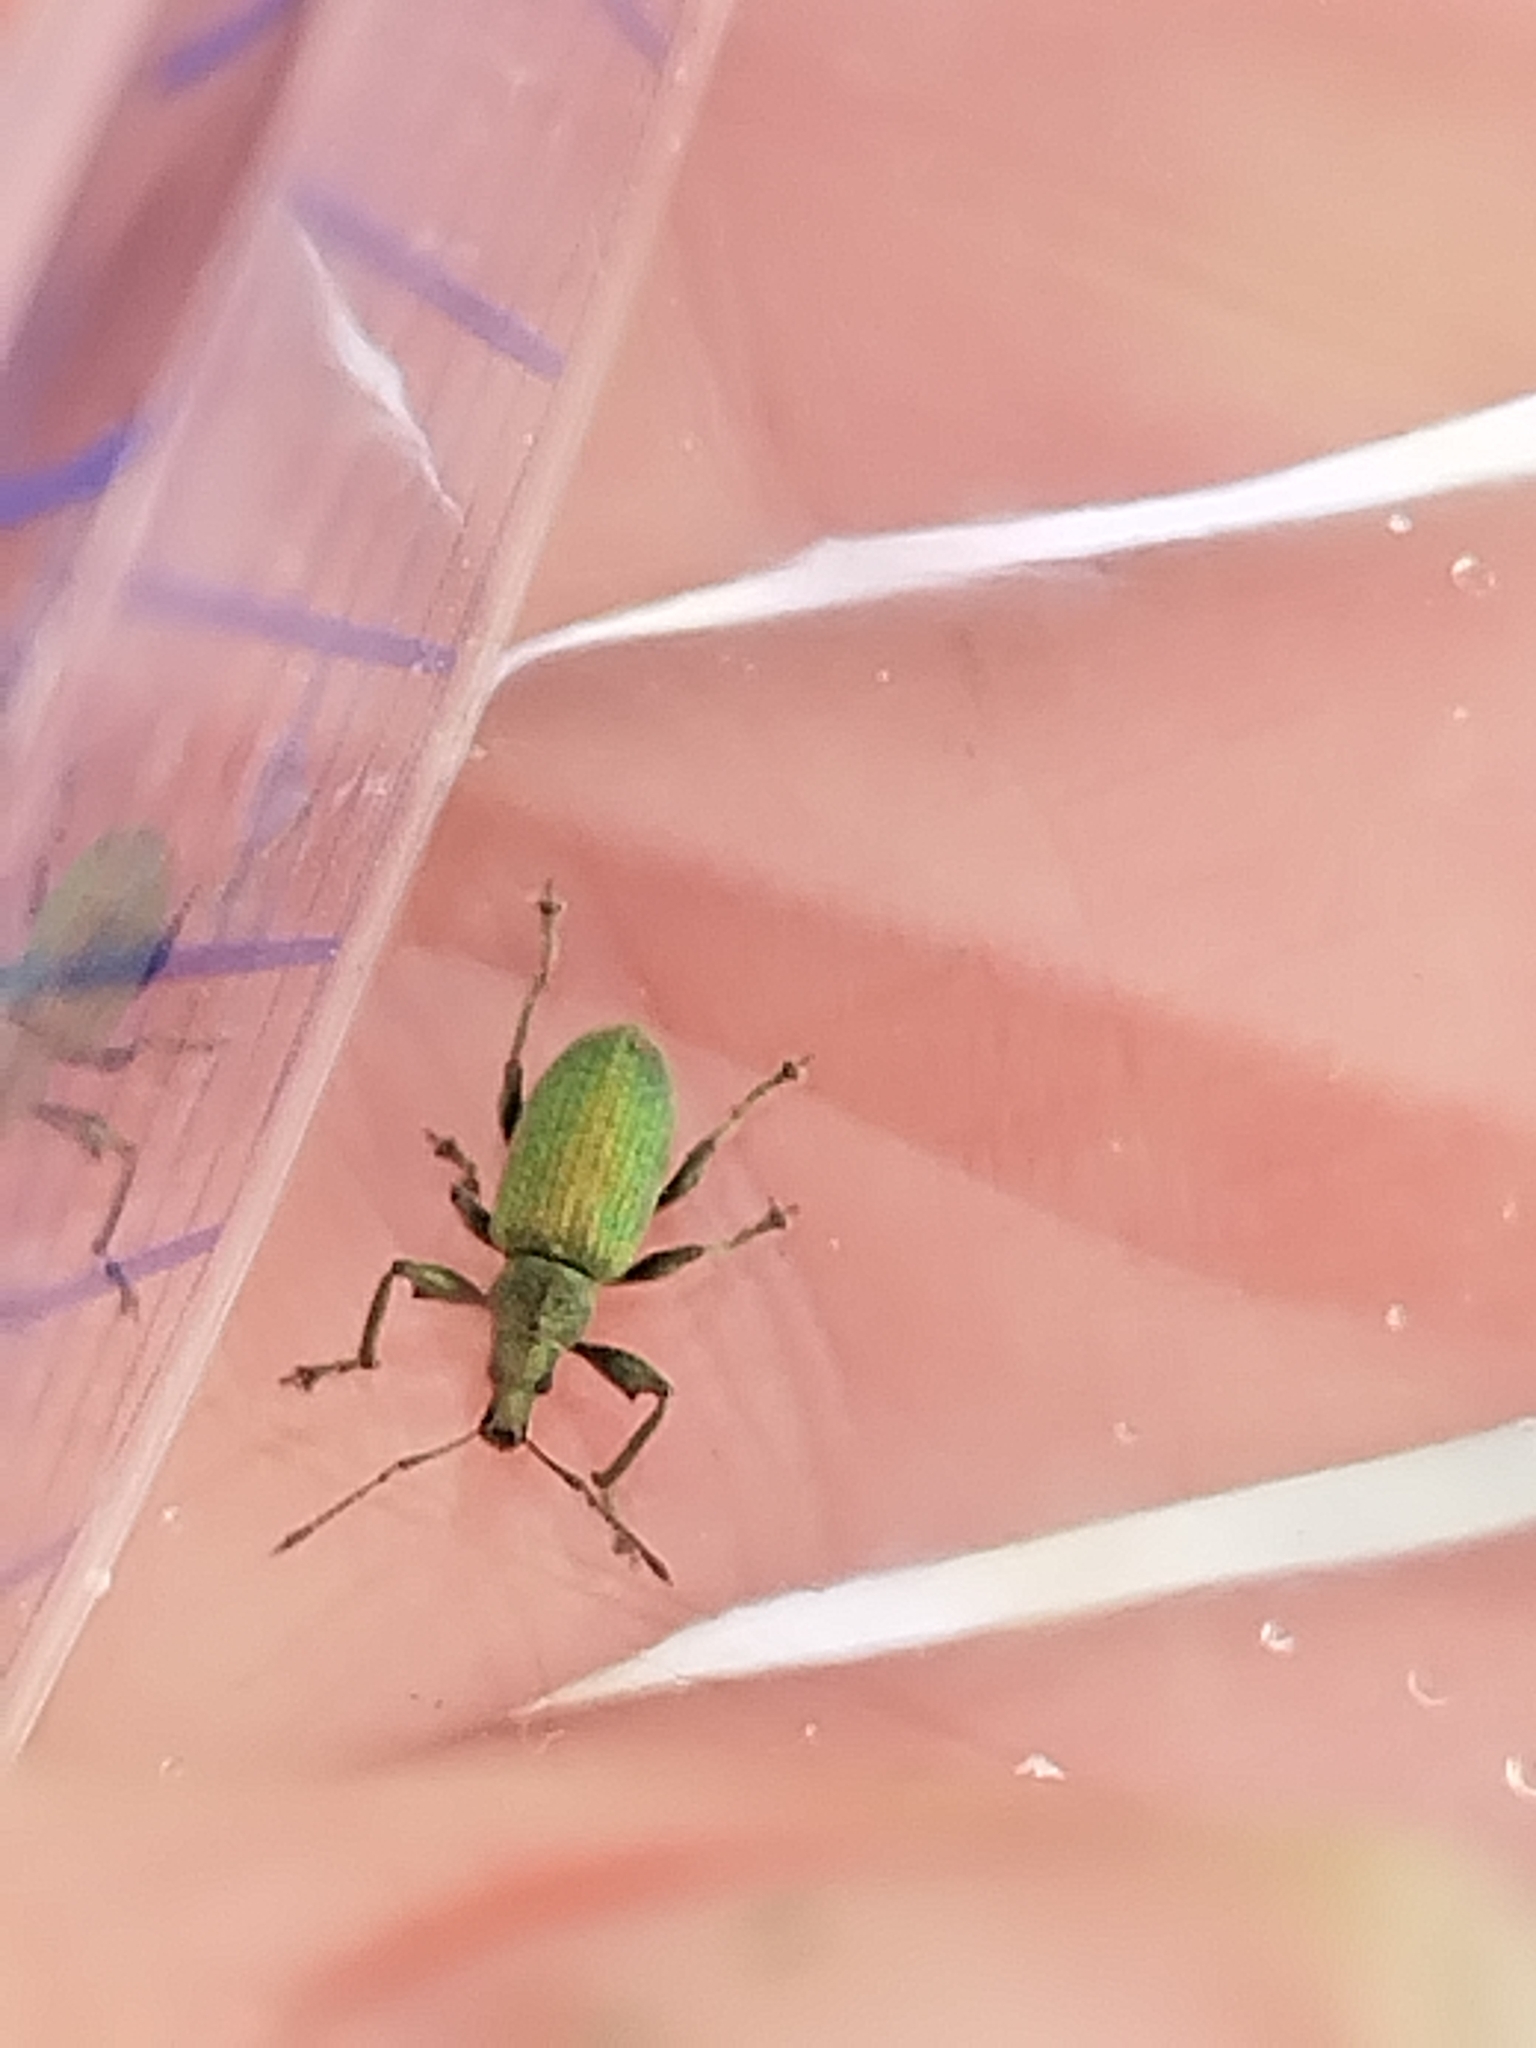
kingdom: Animalia
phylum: Arthropoda
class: Insecta
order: Coleoptera
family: Curculionidae
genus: Phyllobius
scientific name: Phyllobius pomaceus
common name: Green nettle weevil
